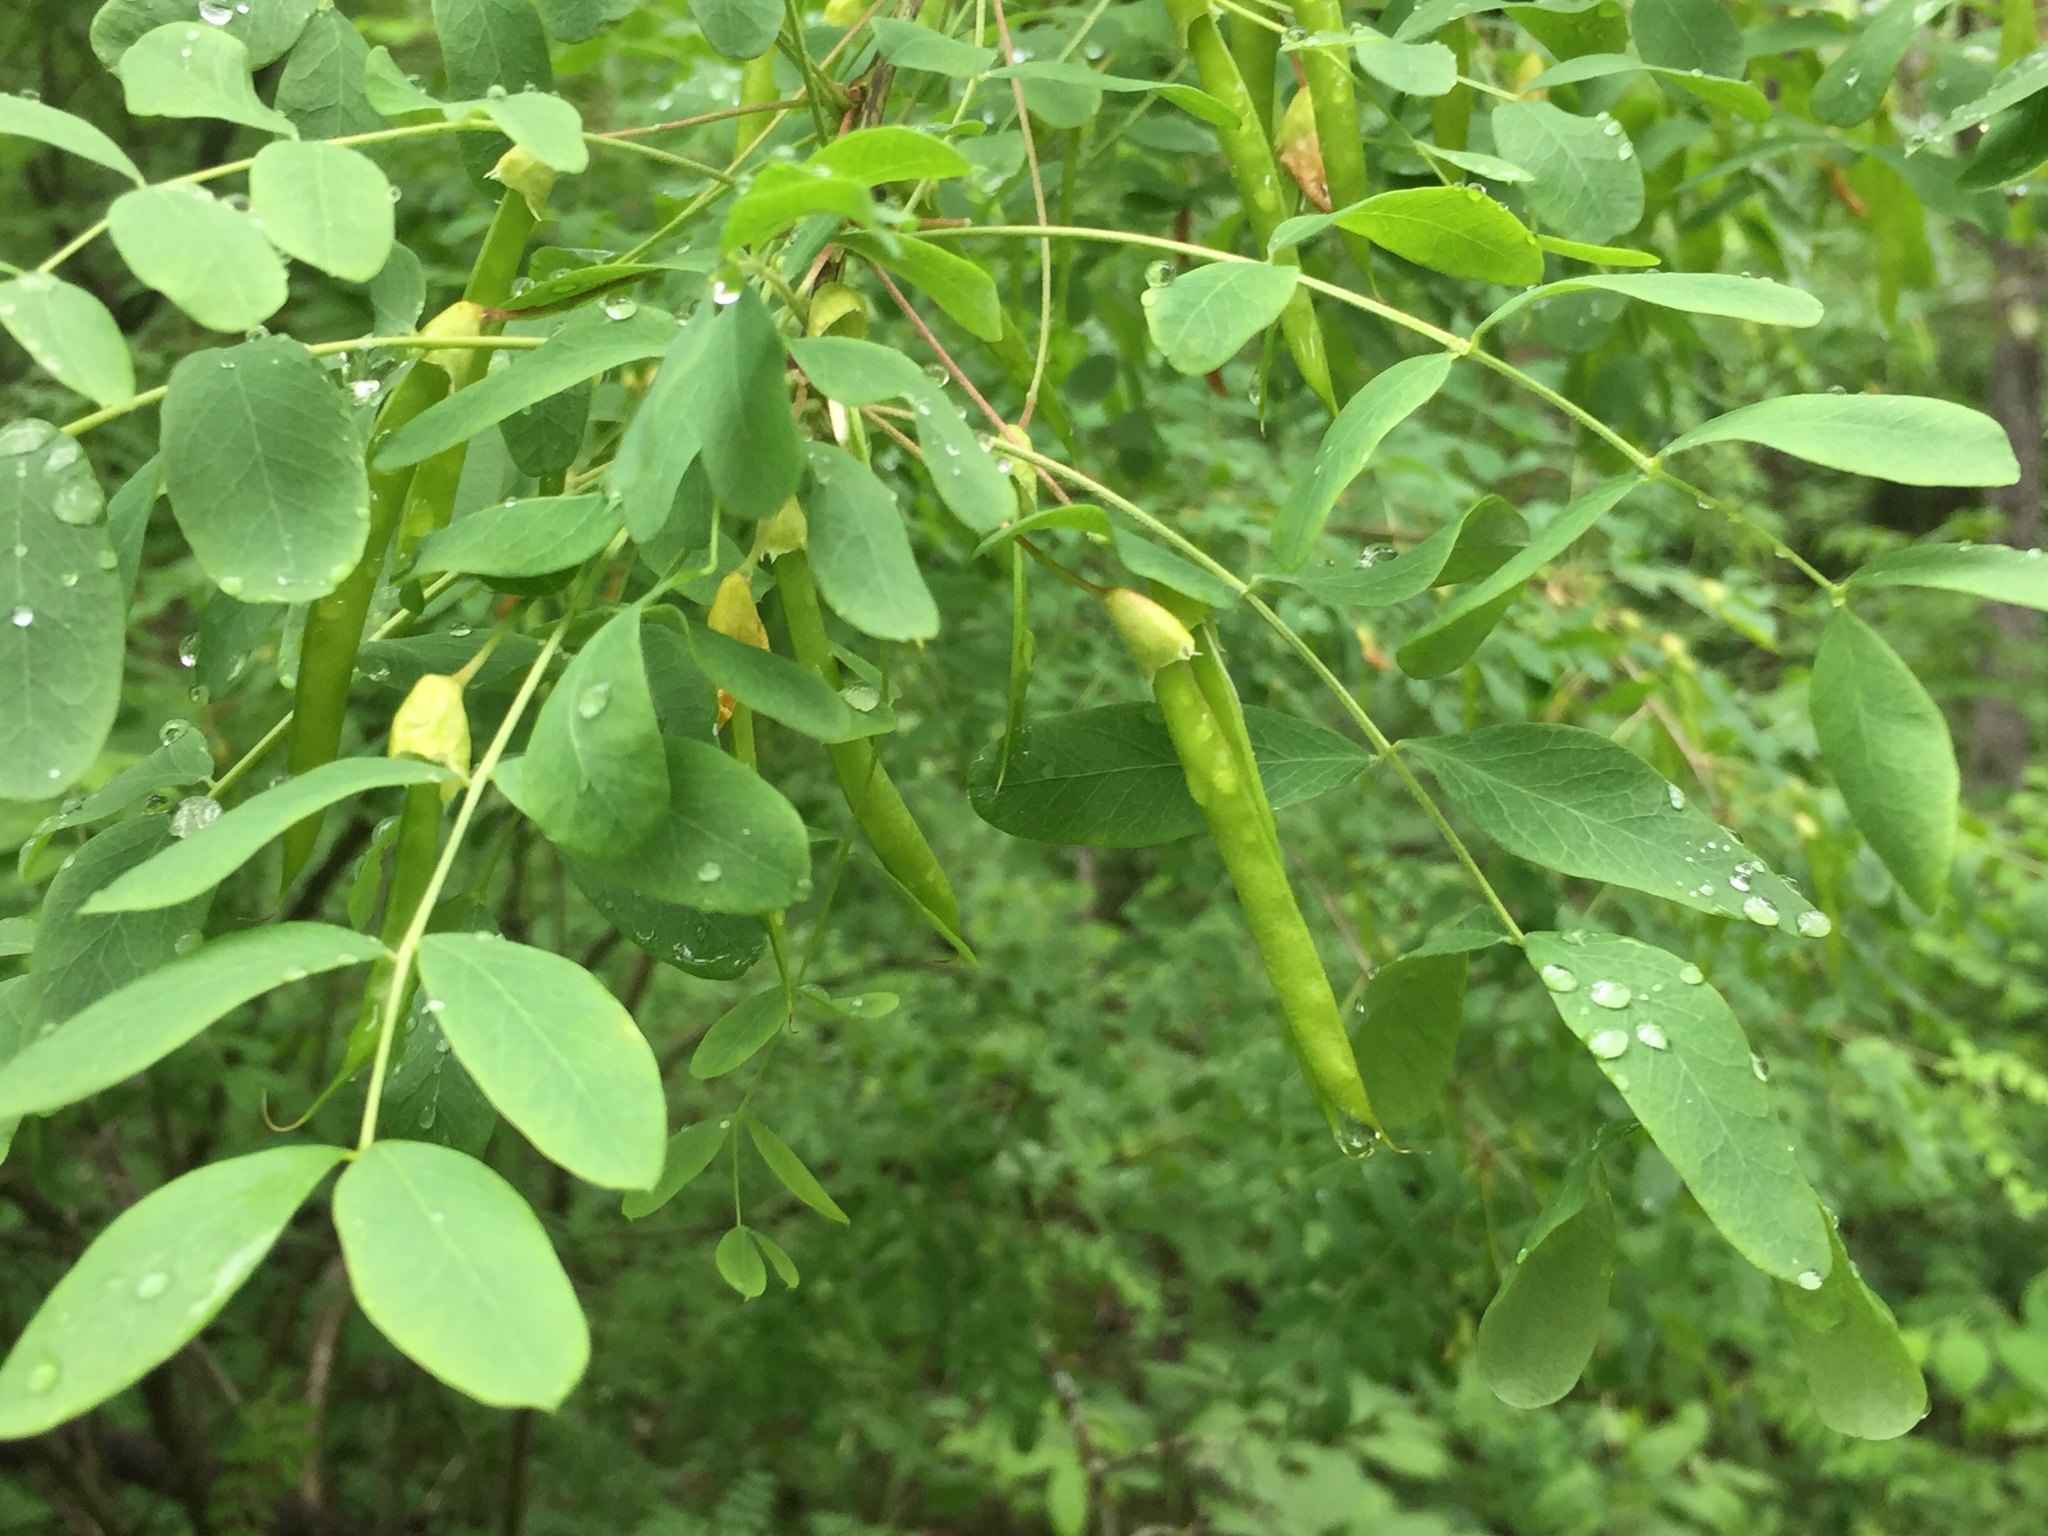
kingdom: Plantae
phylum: Tracheophyta
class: Magnoliopsida
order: Fabales
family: Fabaceae
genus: Caragana
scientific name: Caragana arborescens
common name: Siberian peashrub
